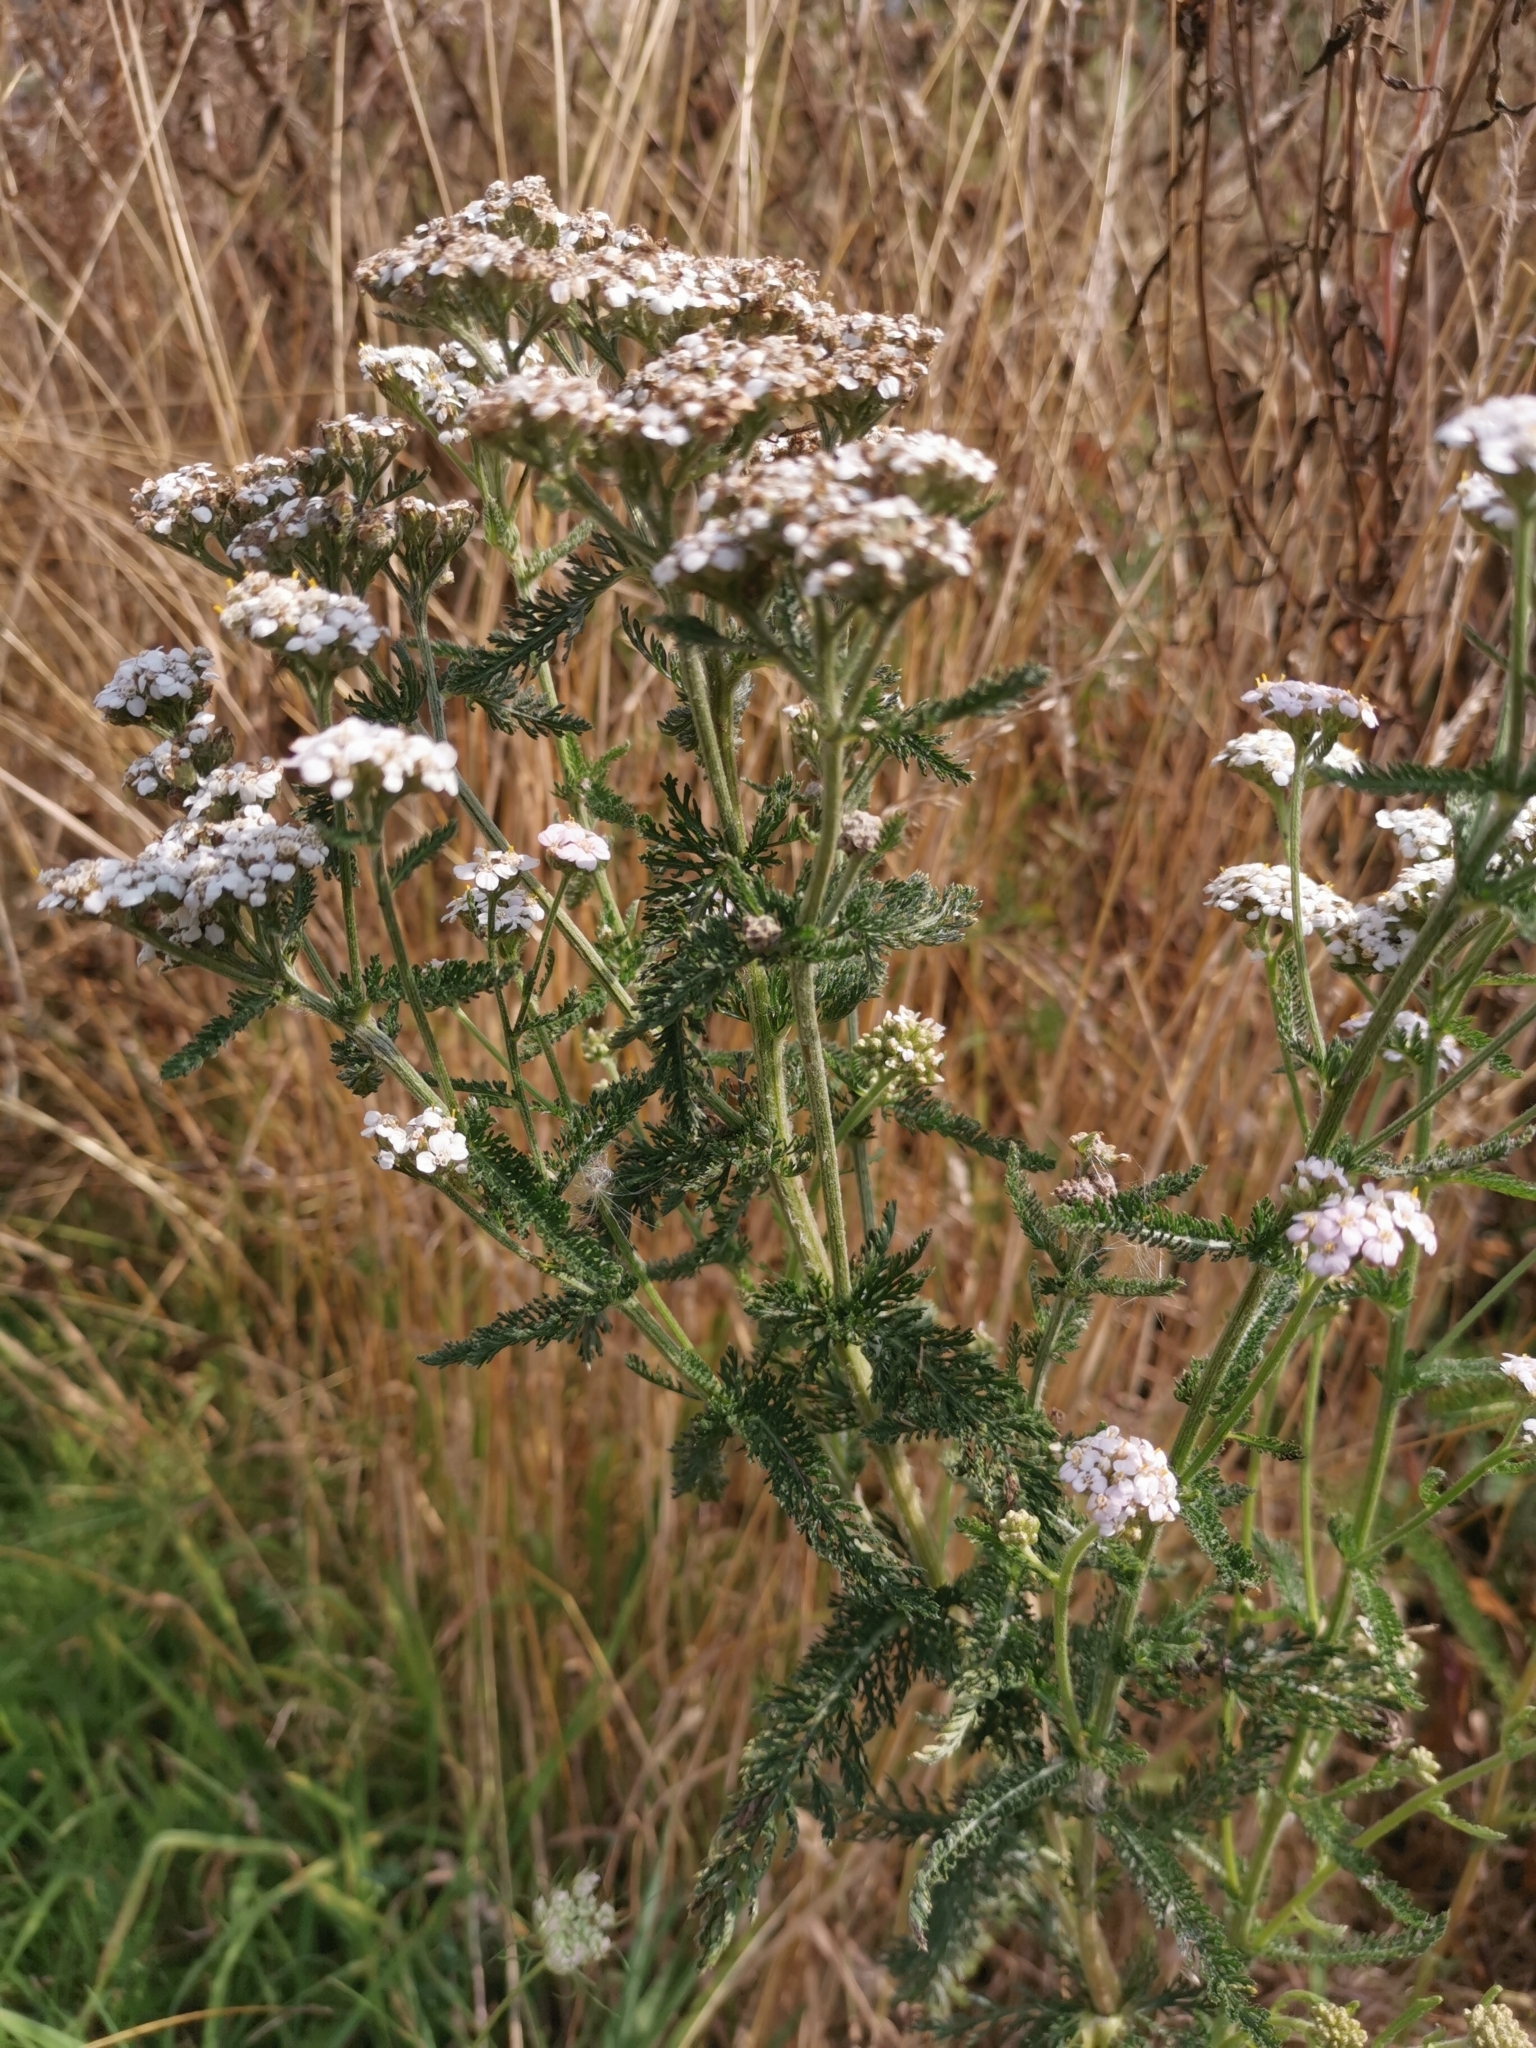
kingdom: Plantae
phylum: Tracheophyta
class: Magnoliopsida
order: Asterales
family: Asteraceae
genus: Achillea
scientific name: Achillea millefolium
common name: Yarrow
